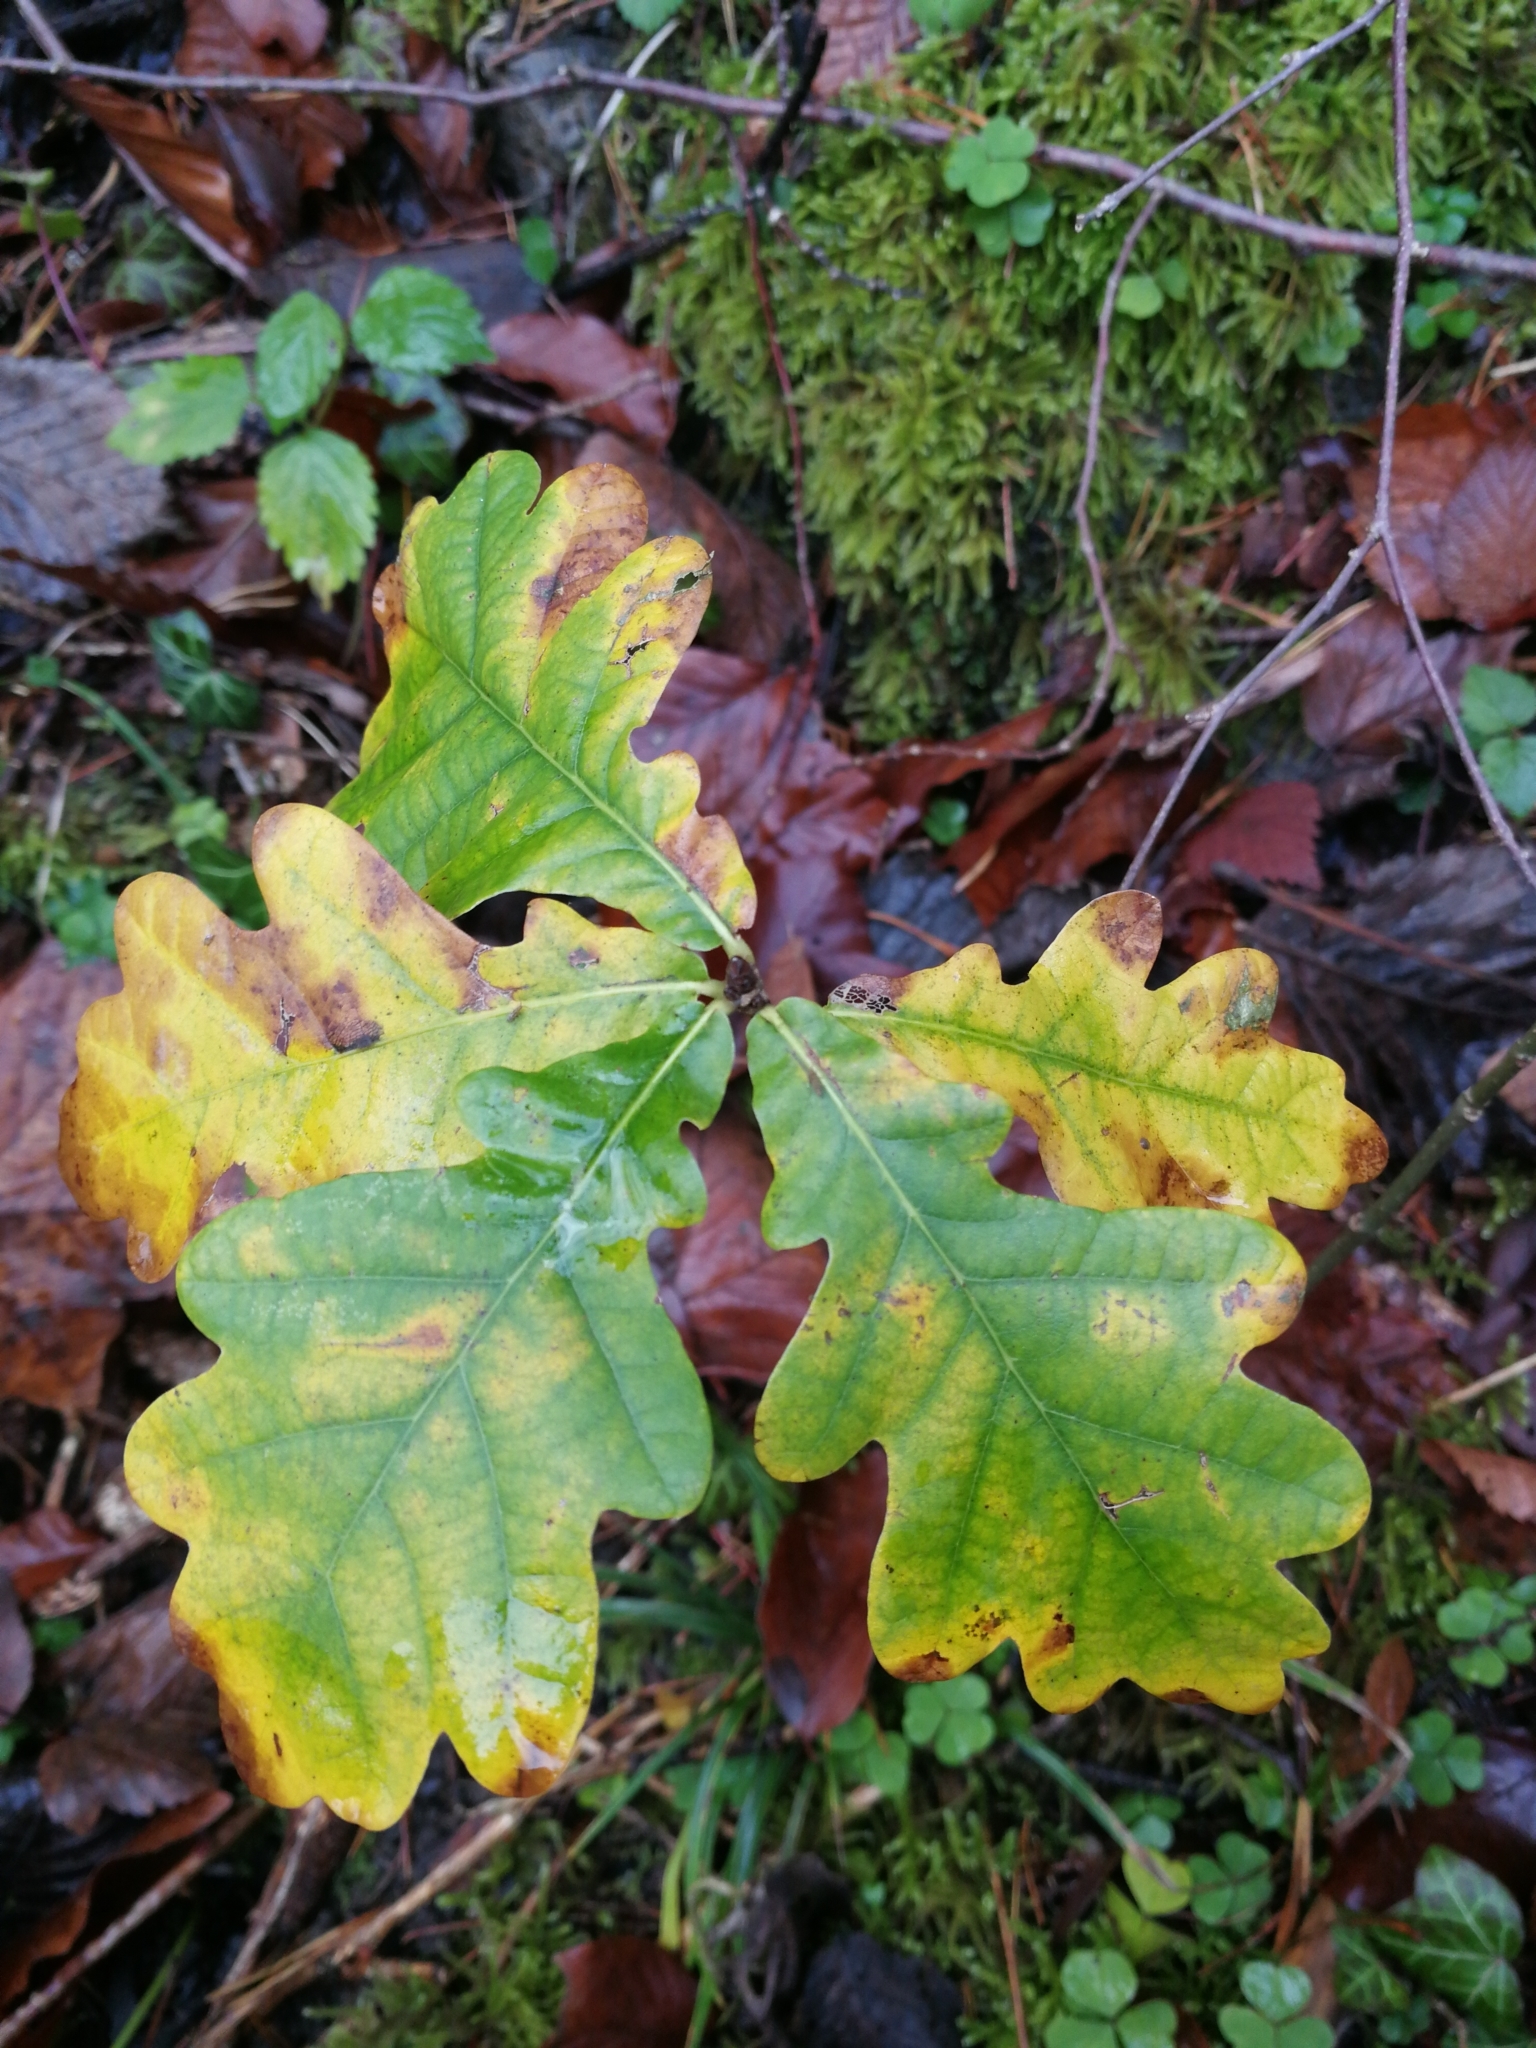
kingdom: Plantae
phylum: Tracheophyta
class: Magnoliopsida
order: Fagales
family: Fagaceae
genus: Quercus
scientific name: Quercus robur
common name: Pedunculate oak
